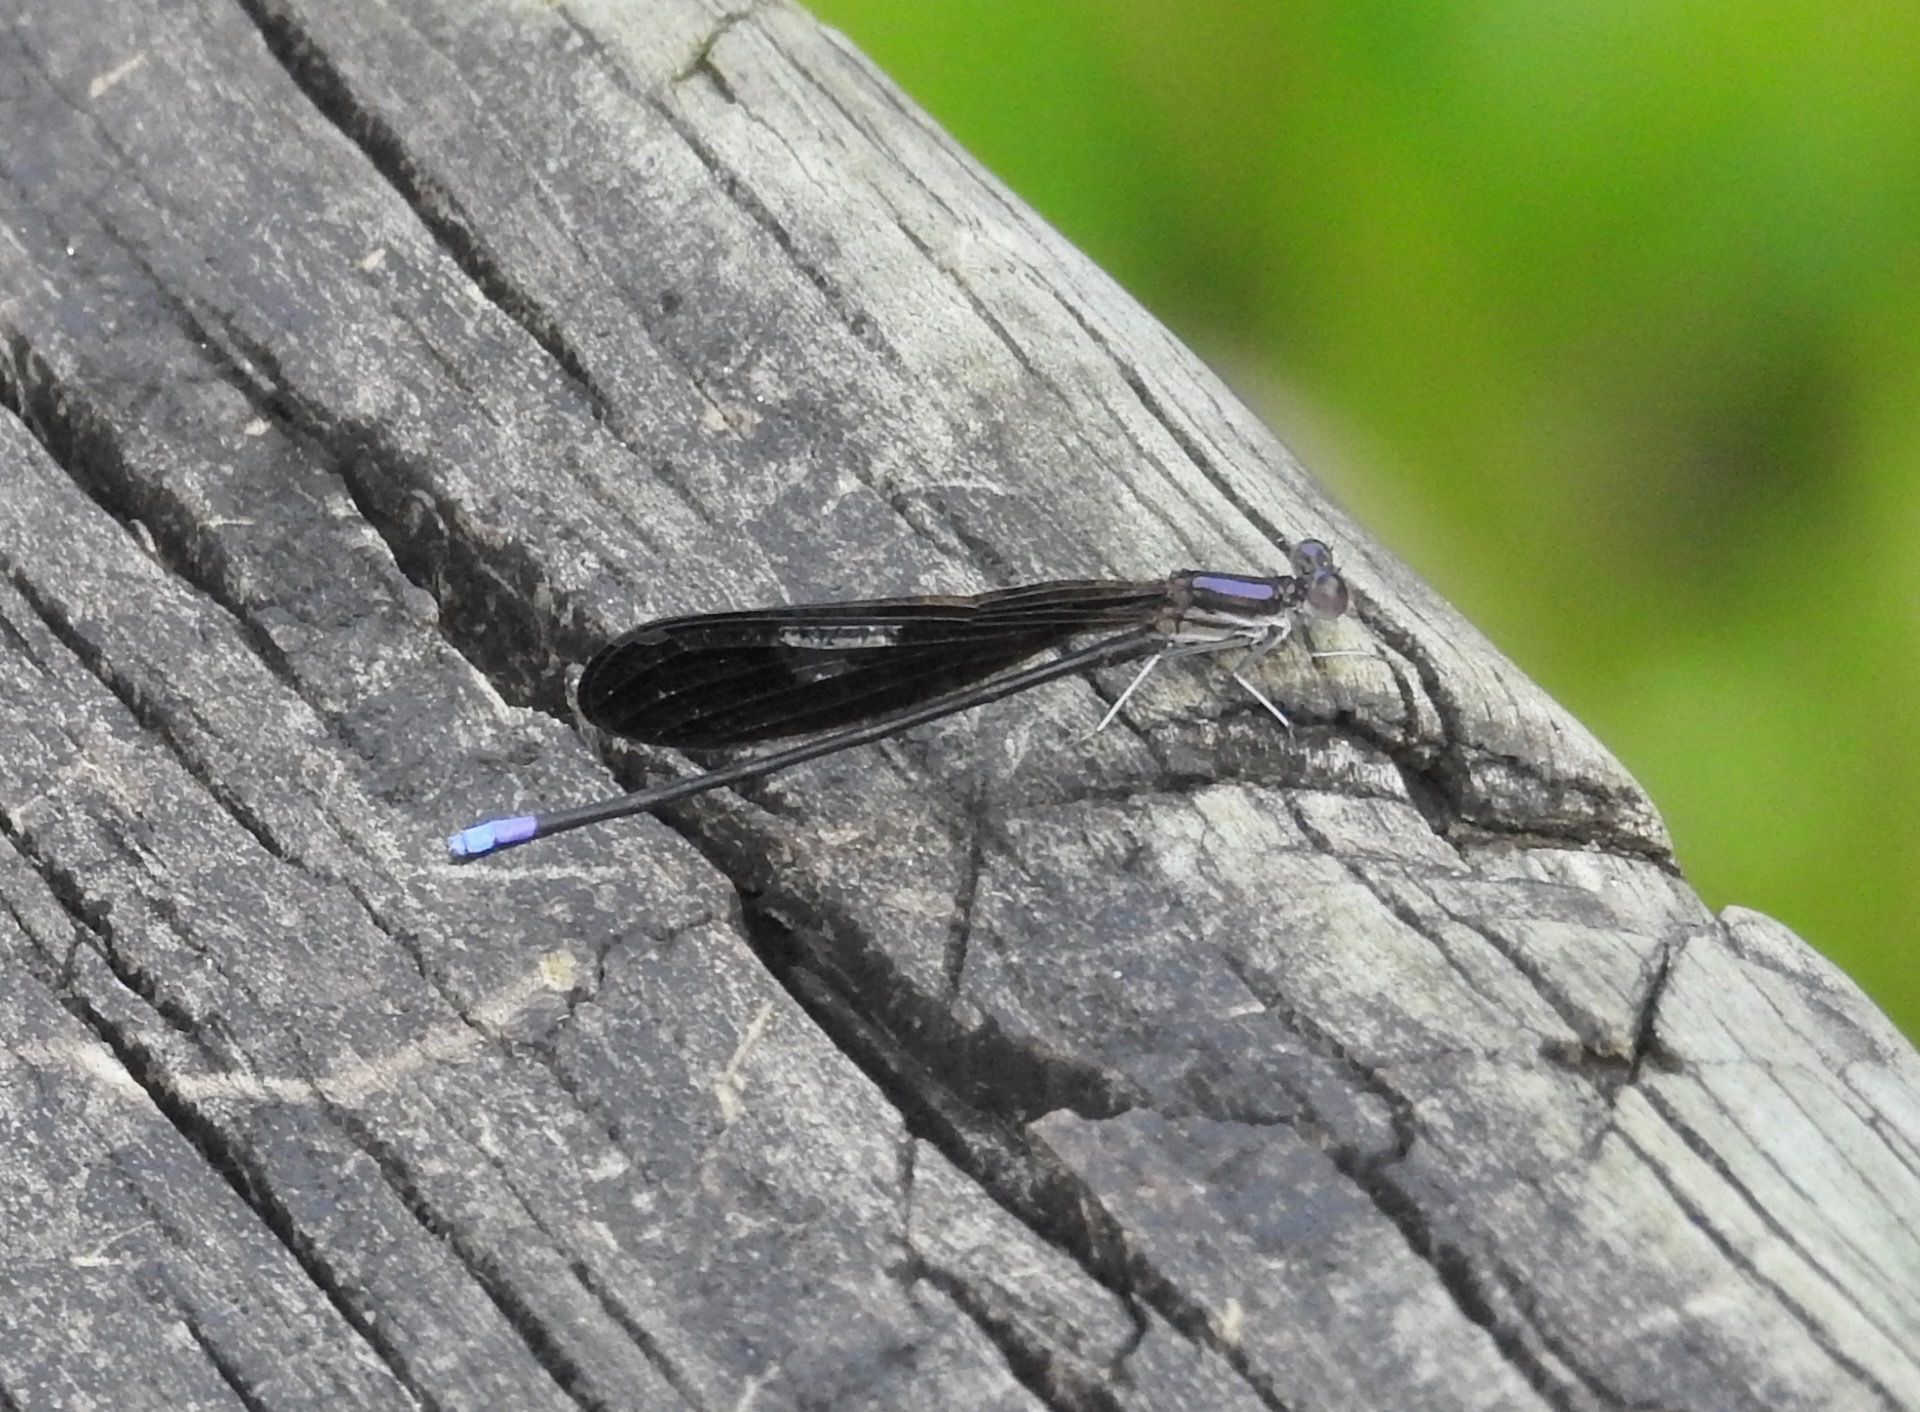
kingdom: Animalia
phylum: Arthropoda
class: Insecta
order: Odonata
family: Coenagrionidae
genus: Argia
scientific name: Argia fumipennis
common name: Variable dancer
